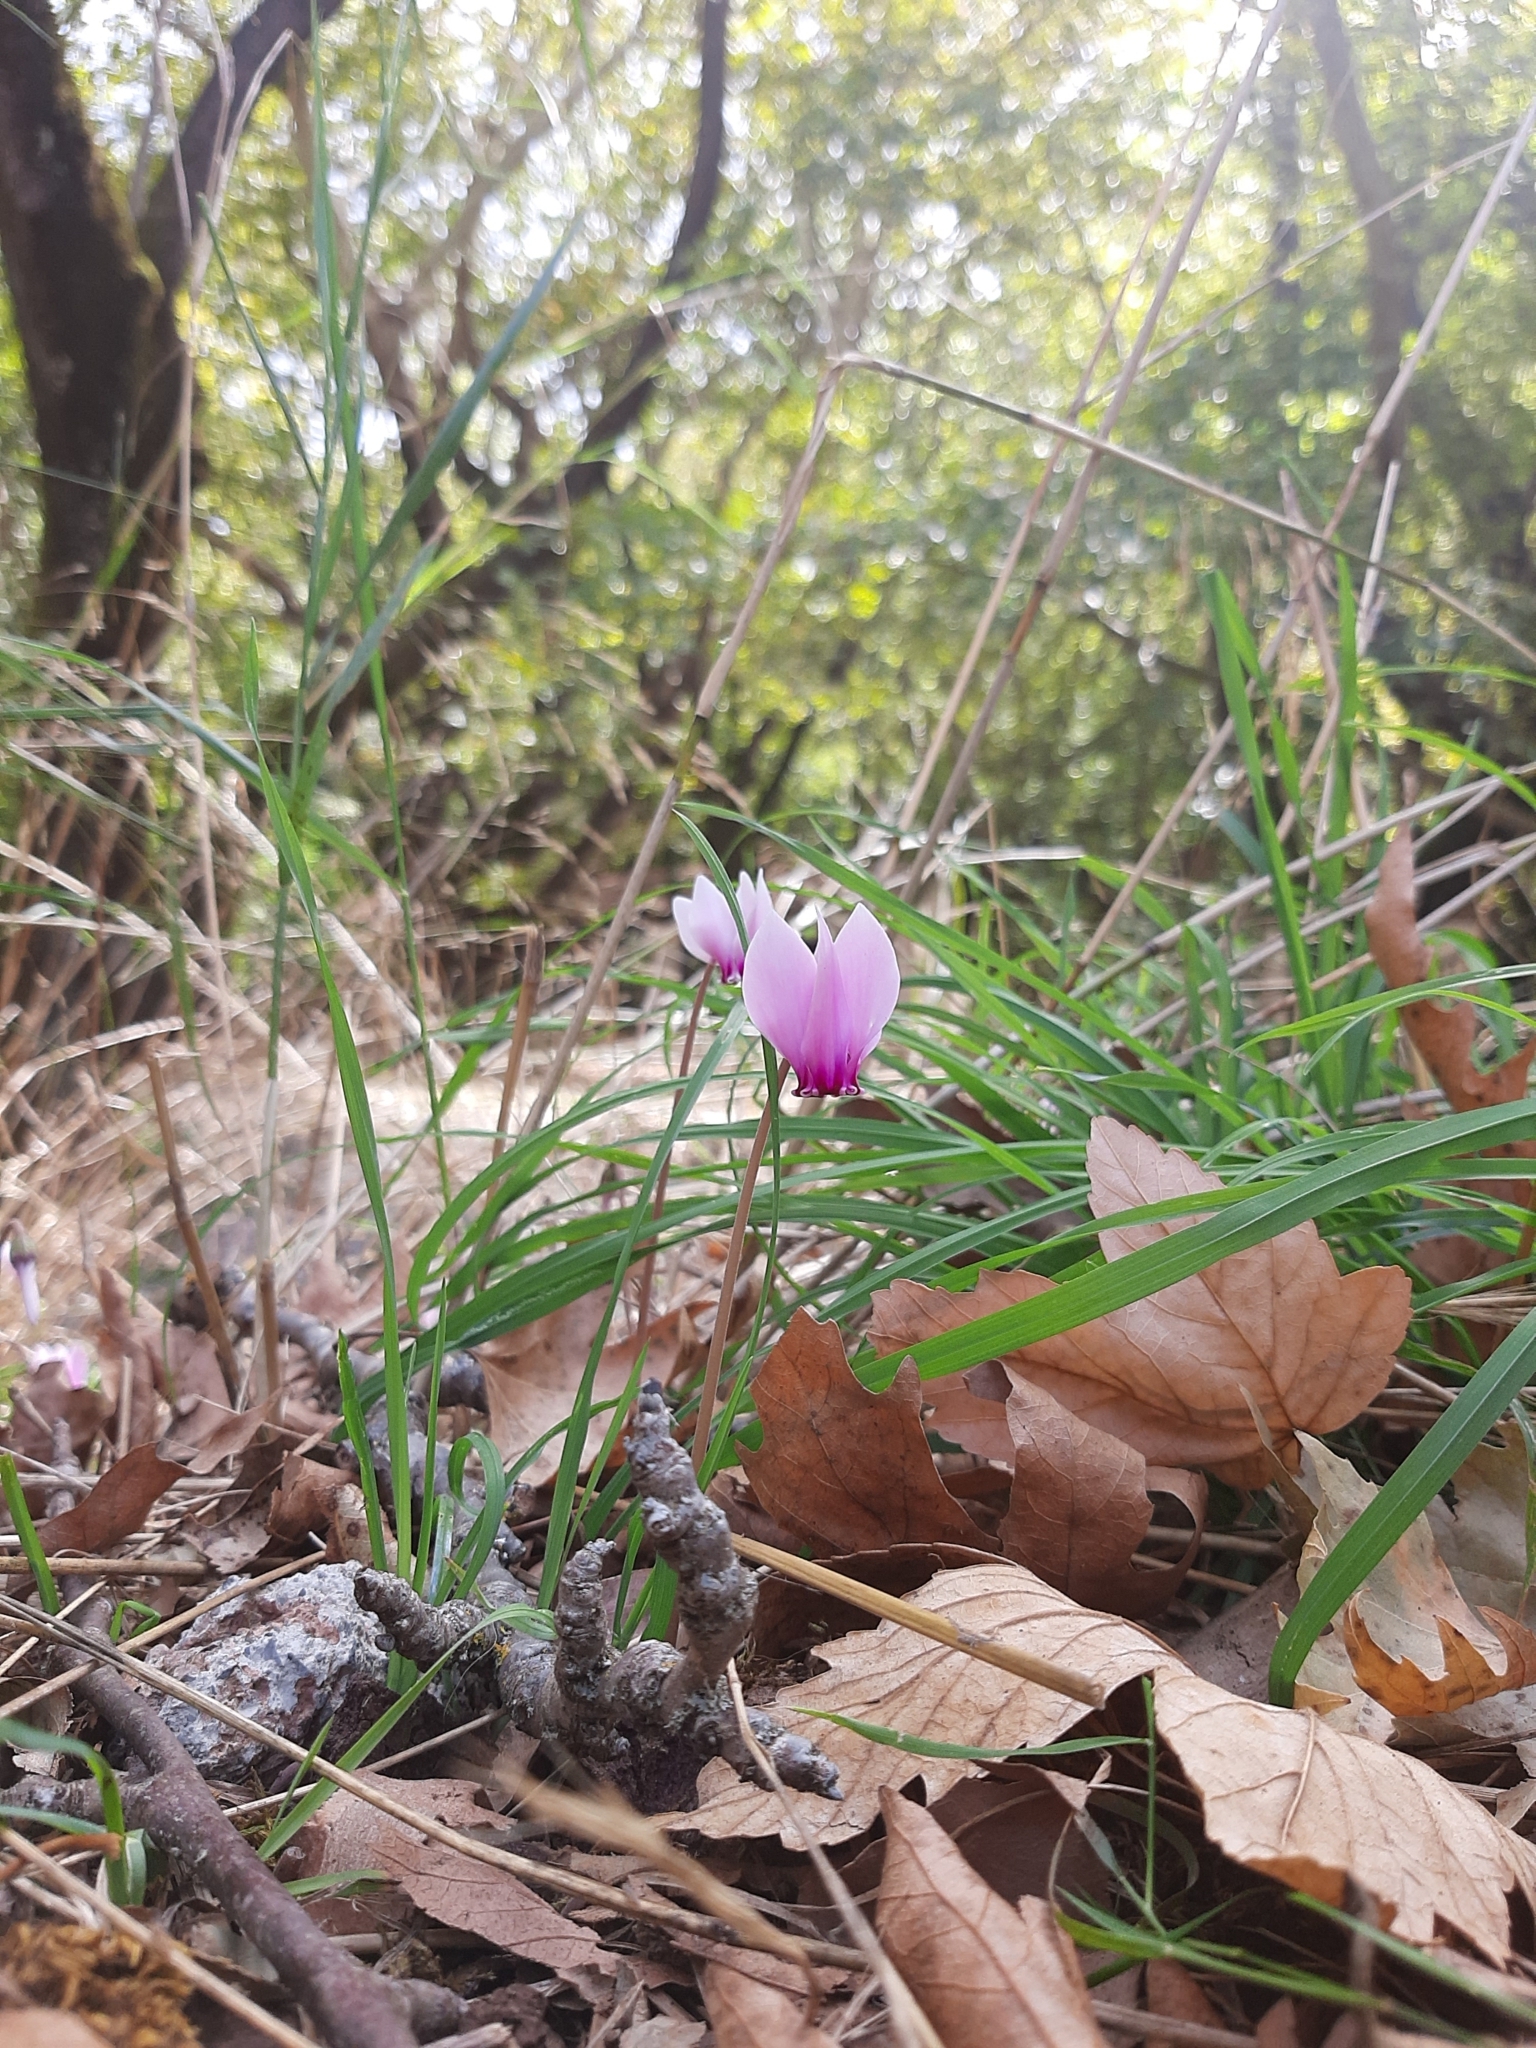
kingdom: Plantae
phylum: Tracheophyta
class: Magnoliopsida
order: Ericales
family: Primulaceae
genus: Cyclamen
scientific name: Cyclamen hederifolium
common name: Sowbread
